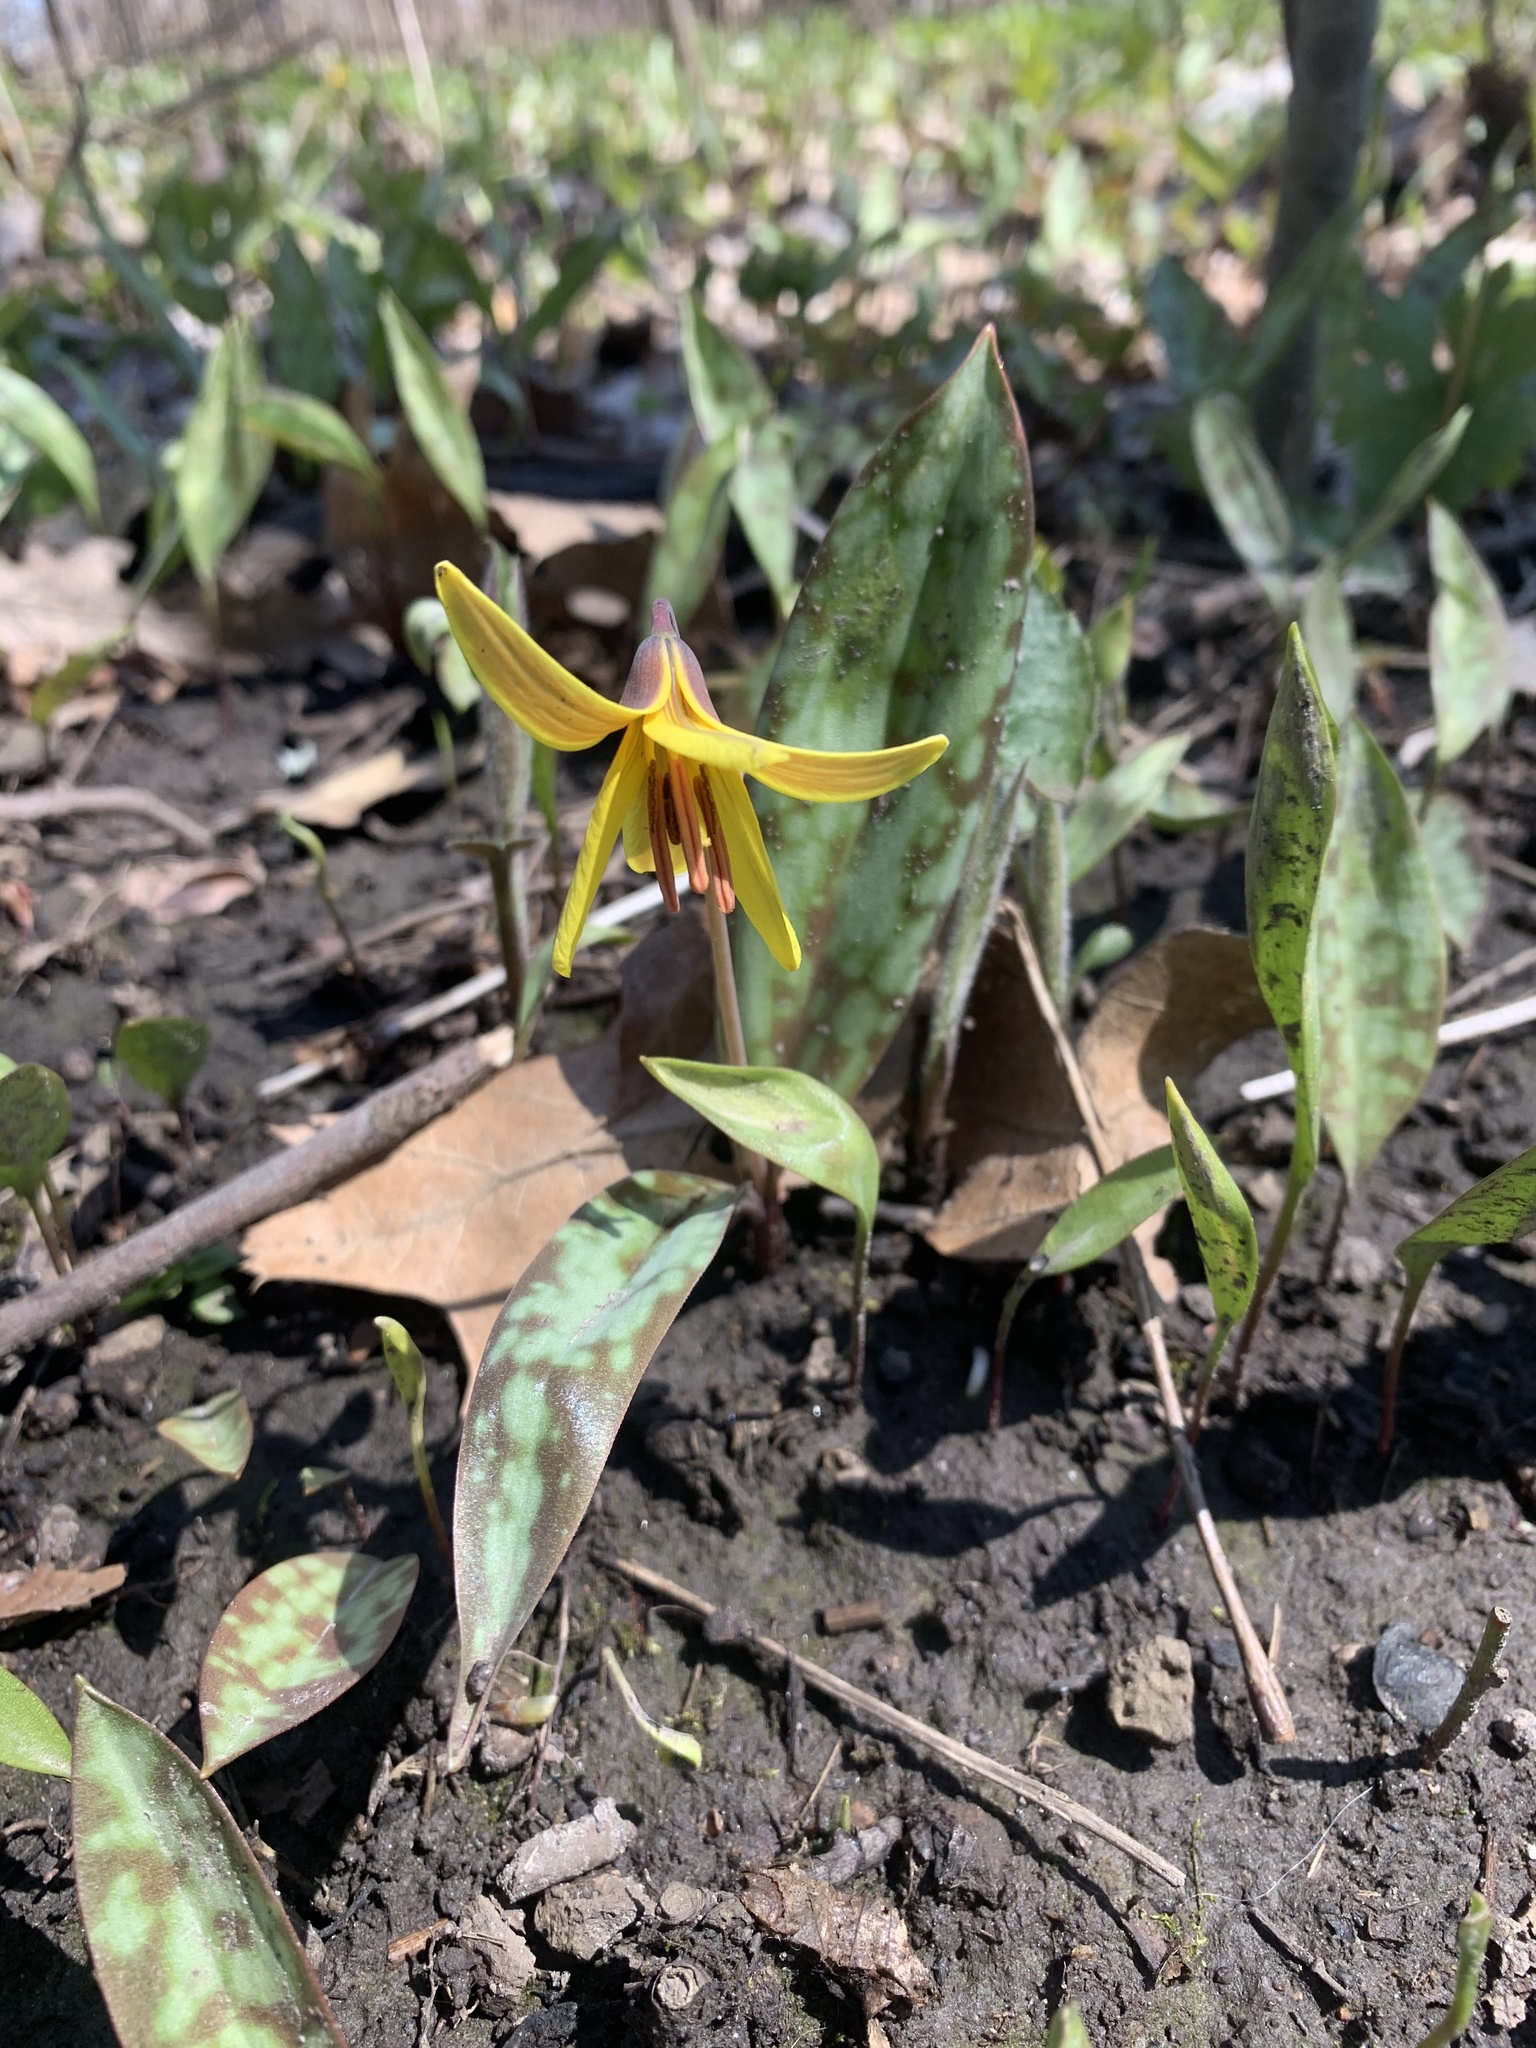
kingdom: Plantae
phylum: Tracheophyta
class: Liliopsida
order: Liliales
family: Liliaceae
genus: Erythronium
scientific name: Erythronium americanum
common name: Yellow adder's-tongue
